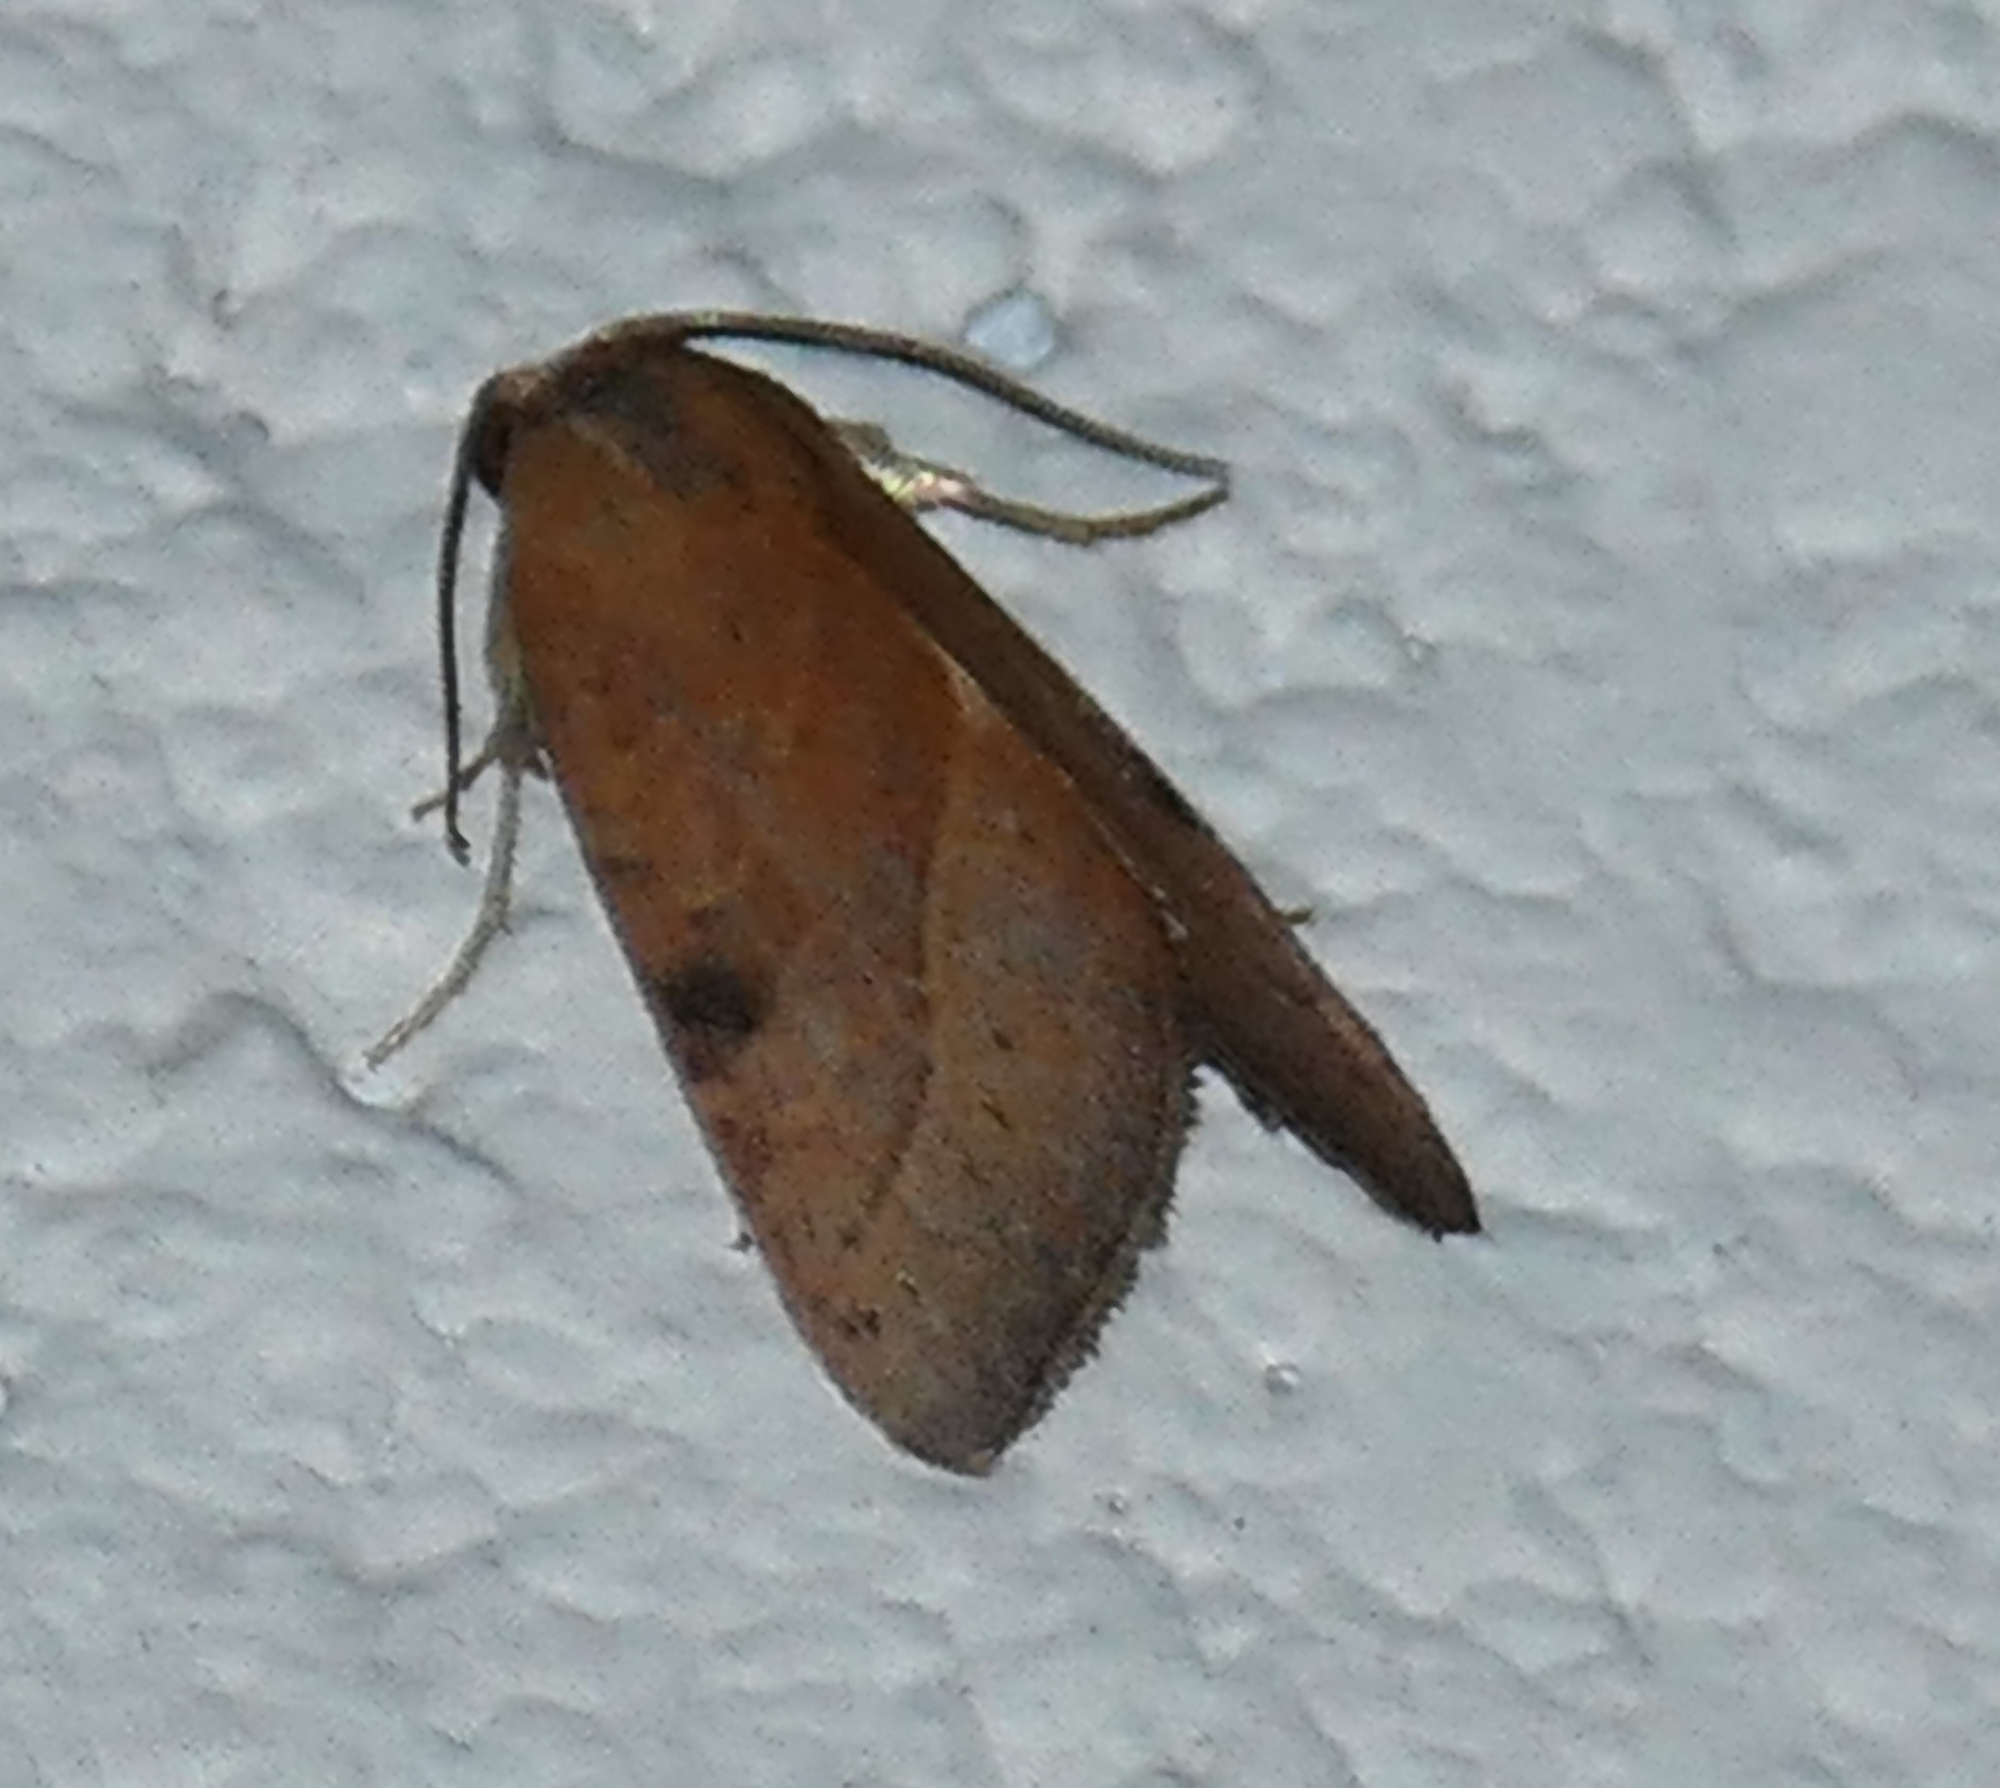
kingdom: Animalia
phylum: Arthropoda
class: Insecta
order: Lepidoptera
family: Noctuidae
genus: Galgula
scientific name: Galgula partita
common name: Wedgeling
